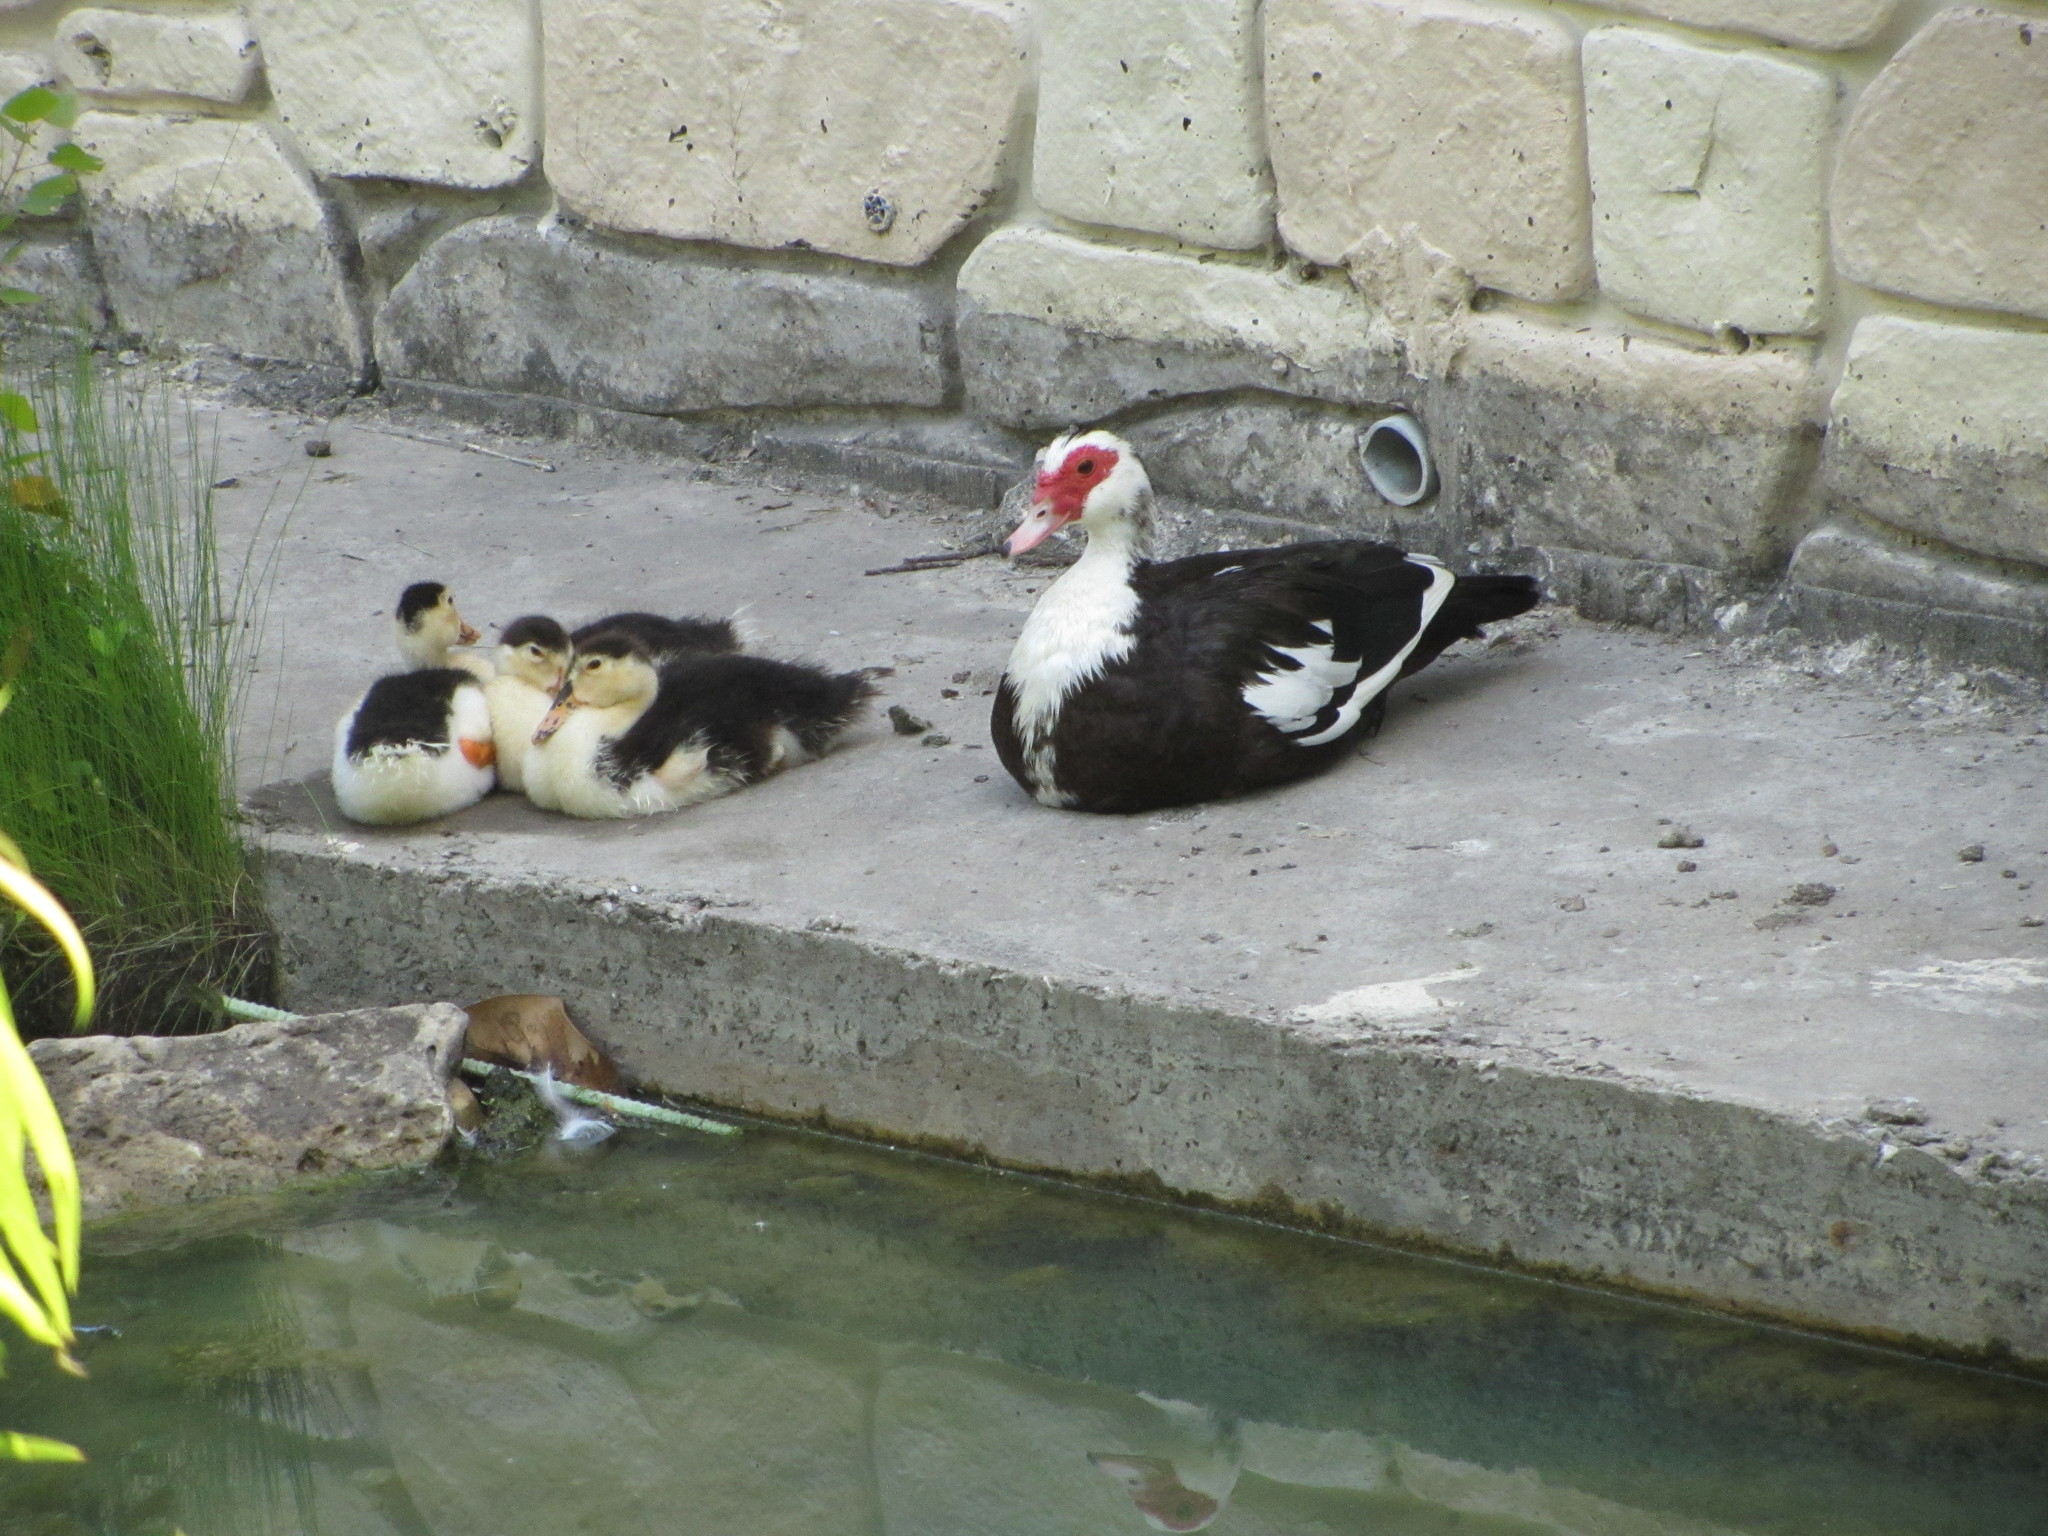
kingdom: Animalia
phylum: Chordata
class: Aves
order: Anseriformes
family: Anatidae
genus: Cairina
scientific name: Cairina moschata
